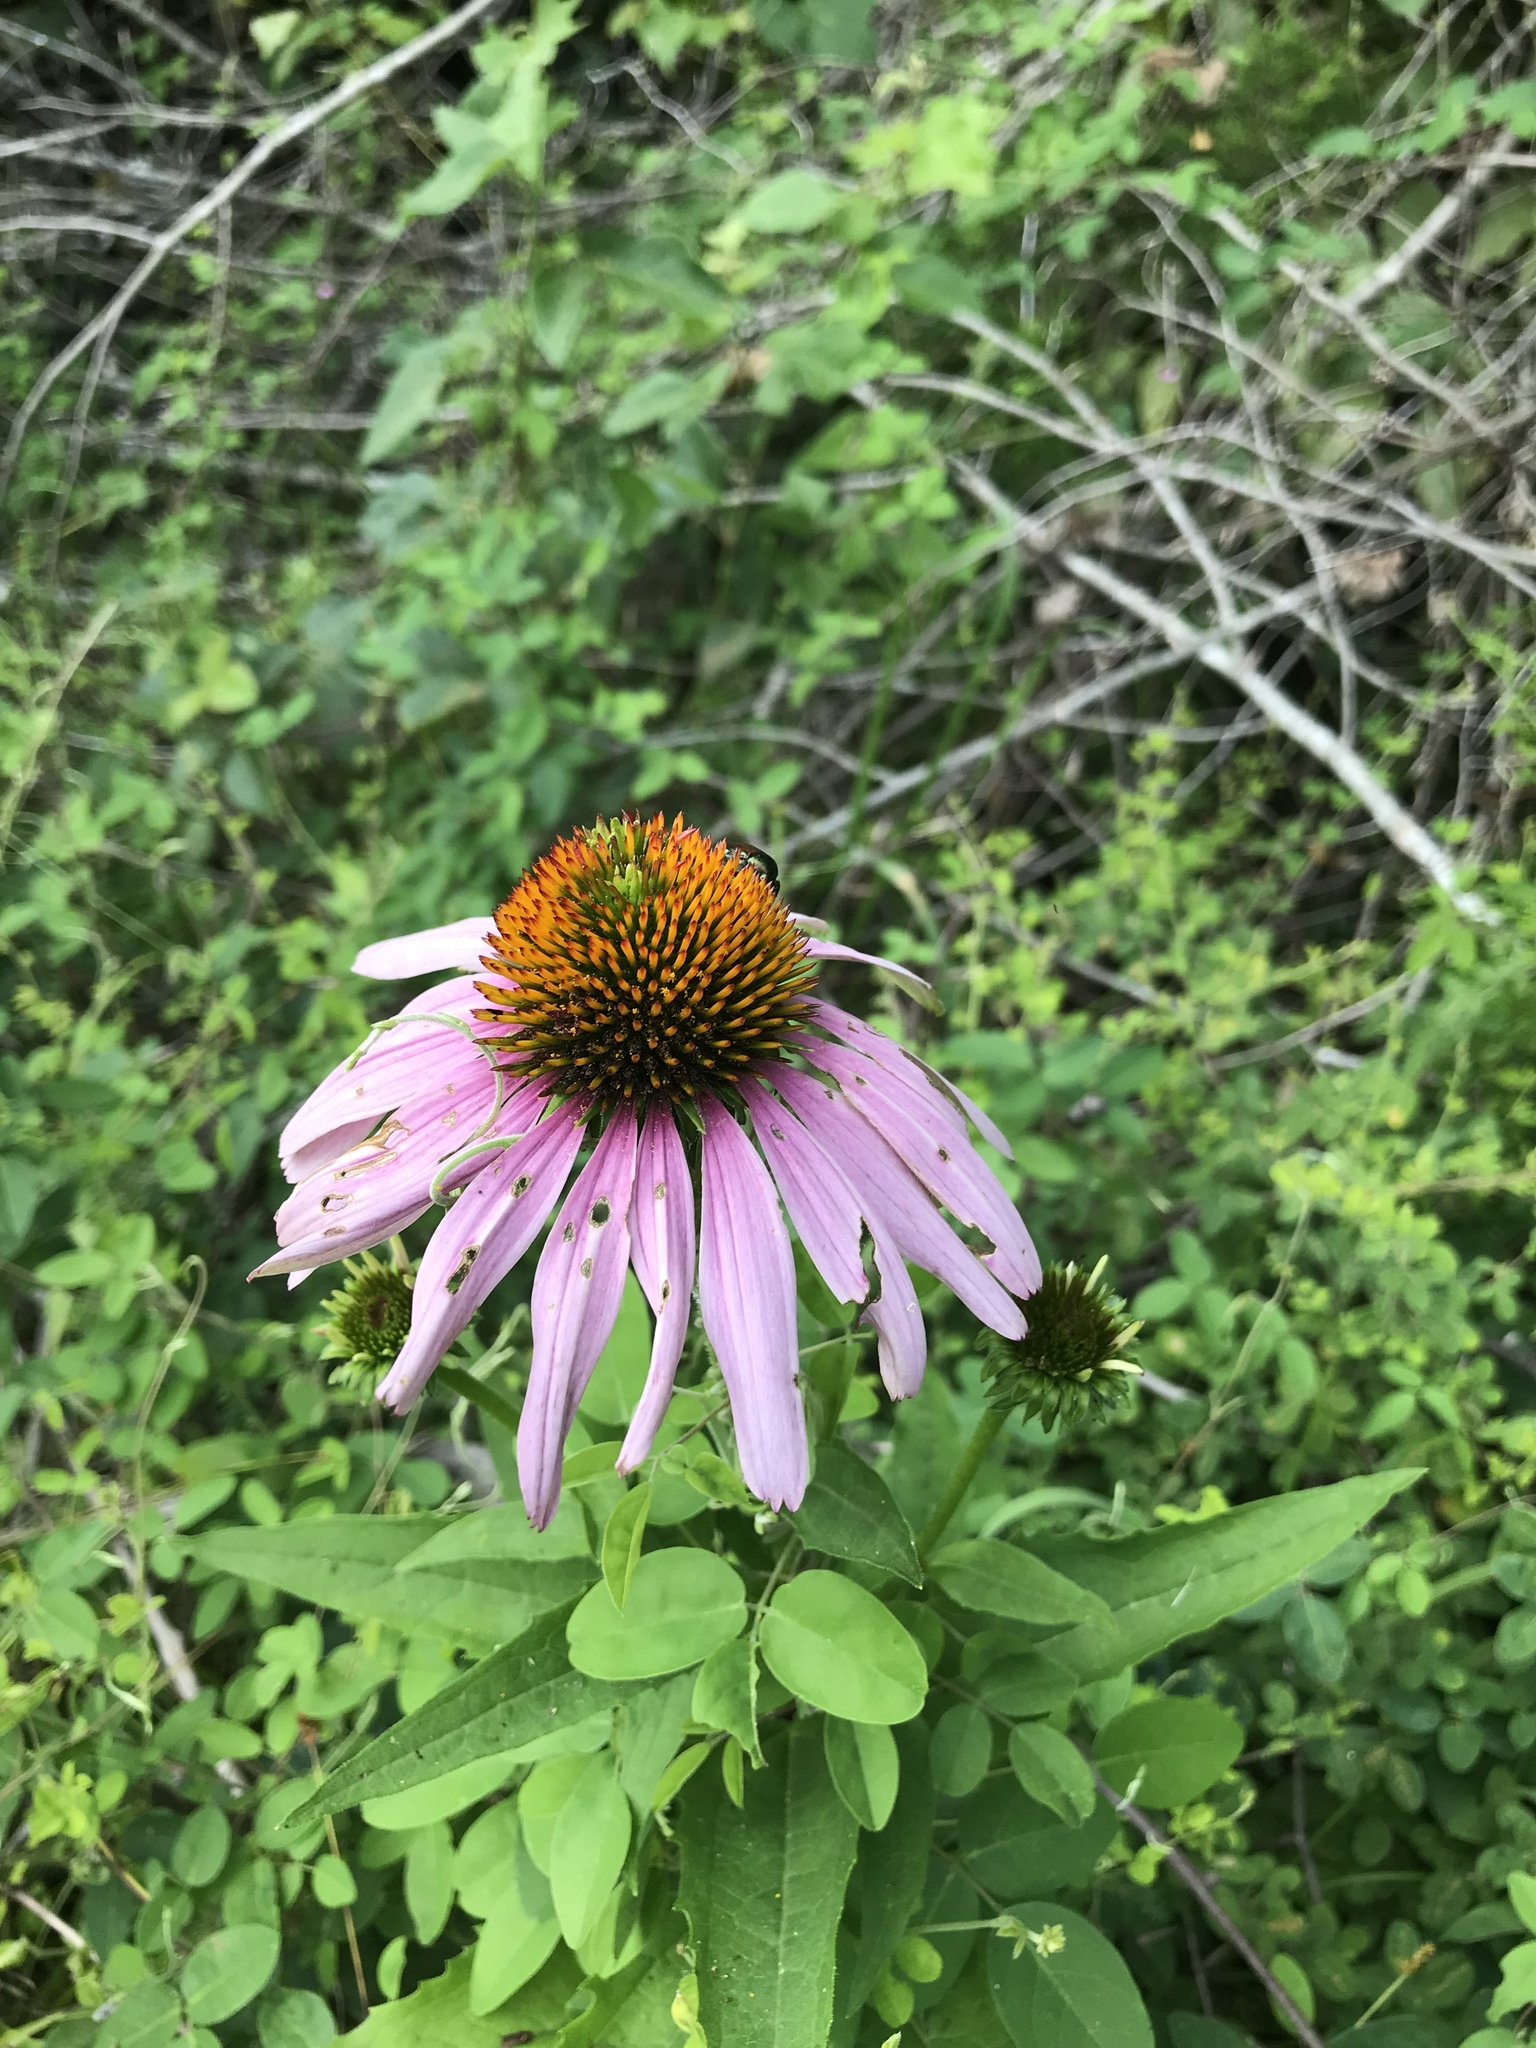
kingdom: Plantae
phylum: Tracheophyta
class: Magnoliopsida
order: Asterales
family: Asteraceae
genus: Echinacea
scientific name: Echinacea purpurea
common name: Broad-leaved purple coneflower
